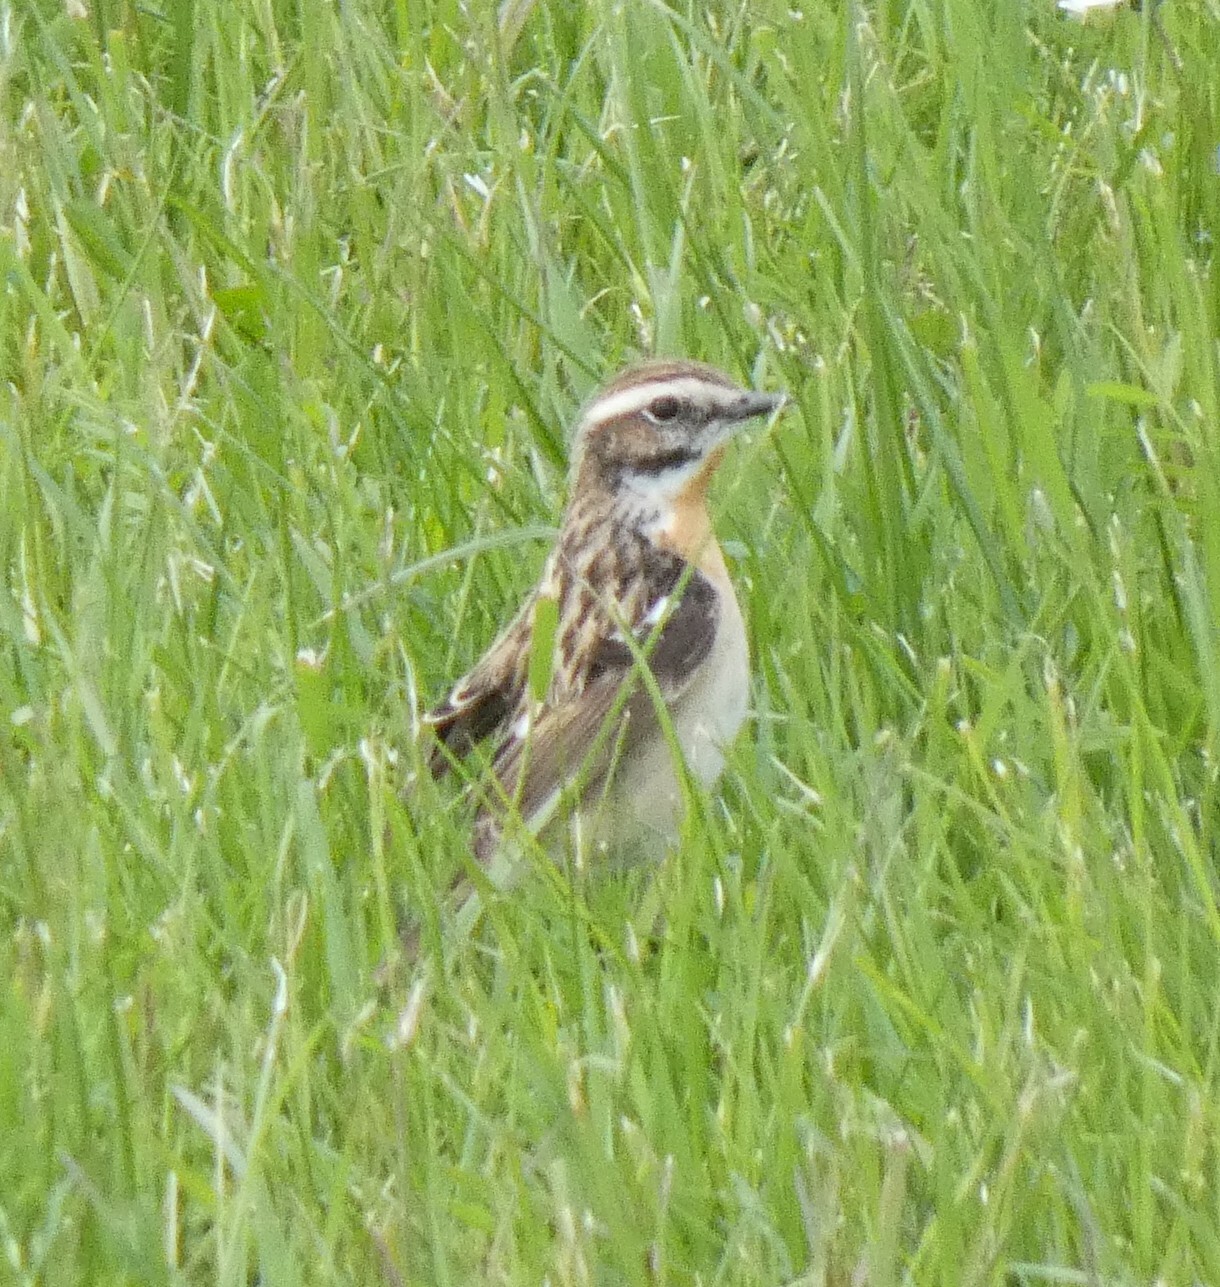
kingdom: Animalia
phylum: Chordata
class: Aves
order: Passeriformes
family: Muscicapidae
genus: Saxicola
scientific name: Saxicola rubetra
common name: Whinchat
